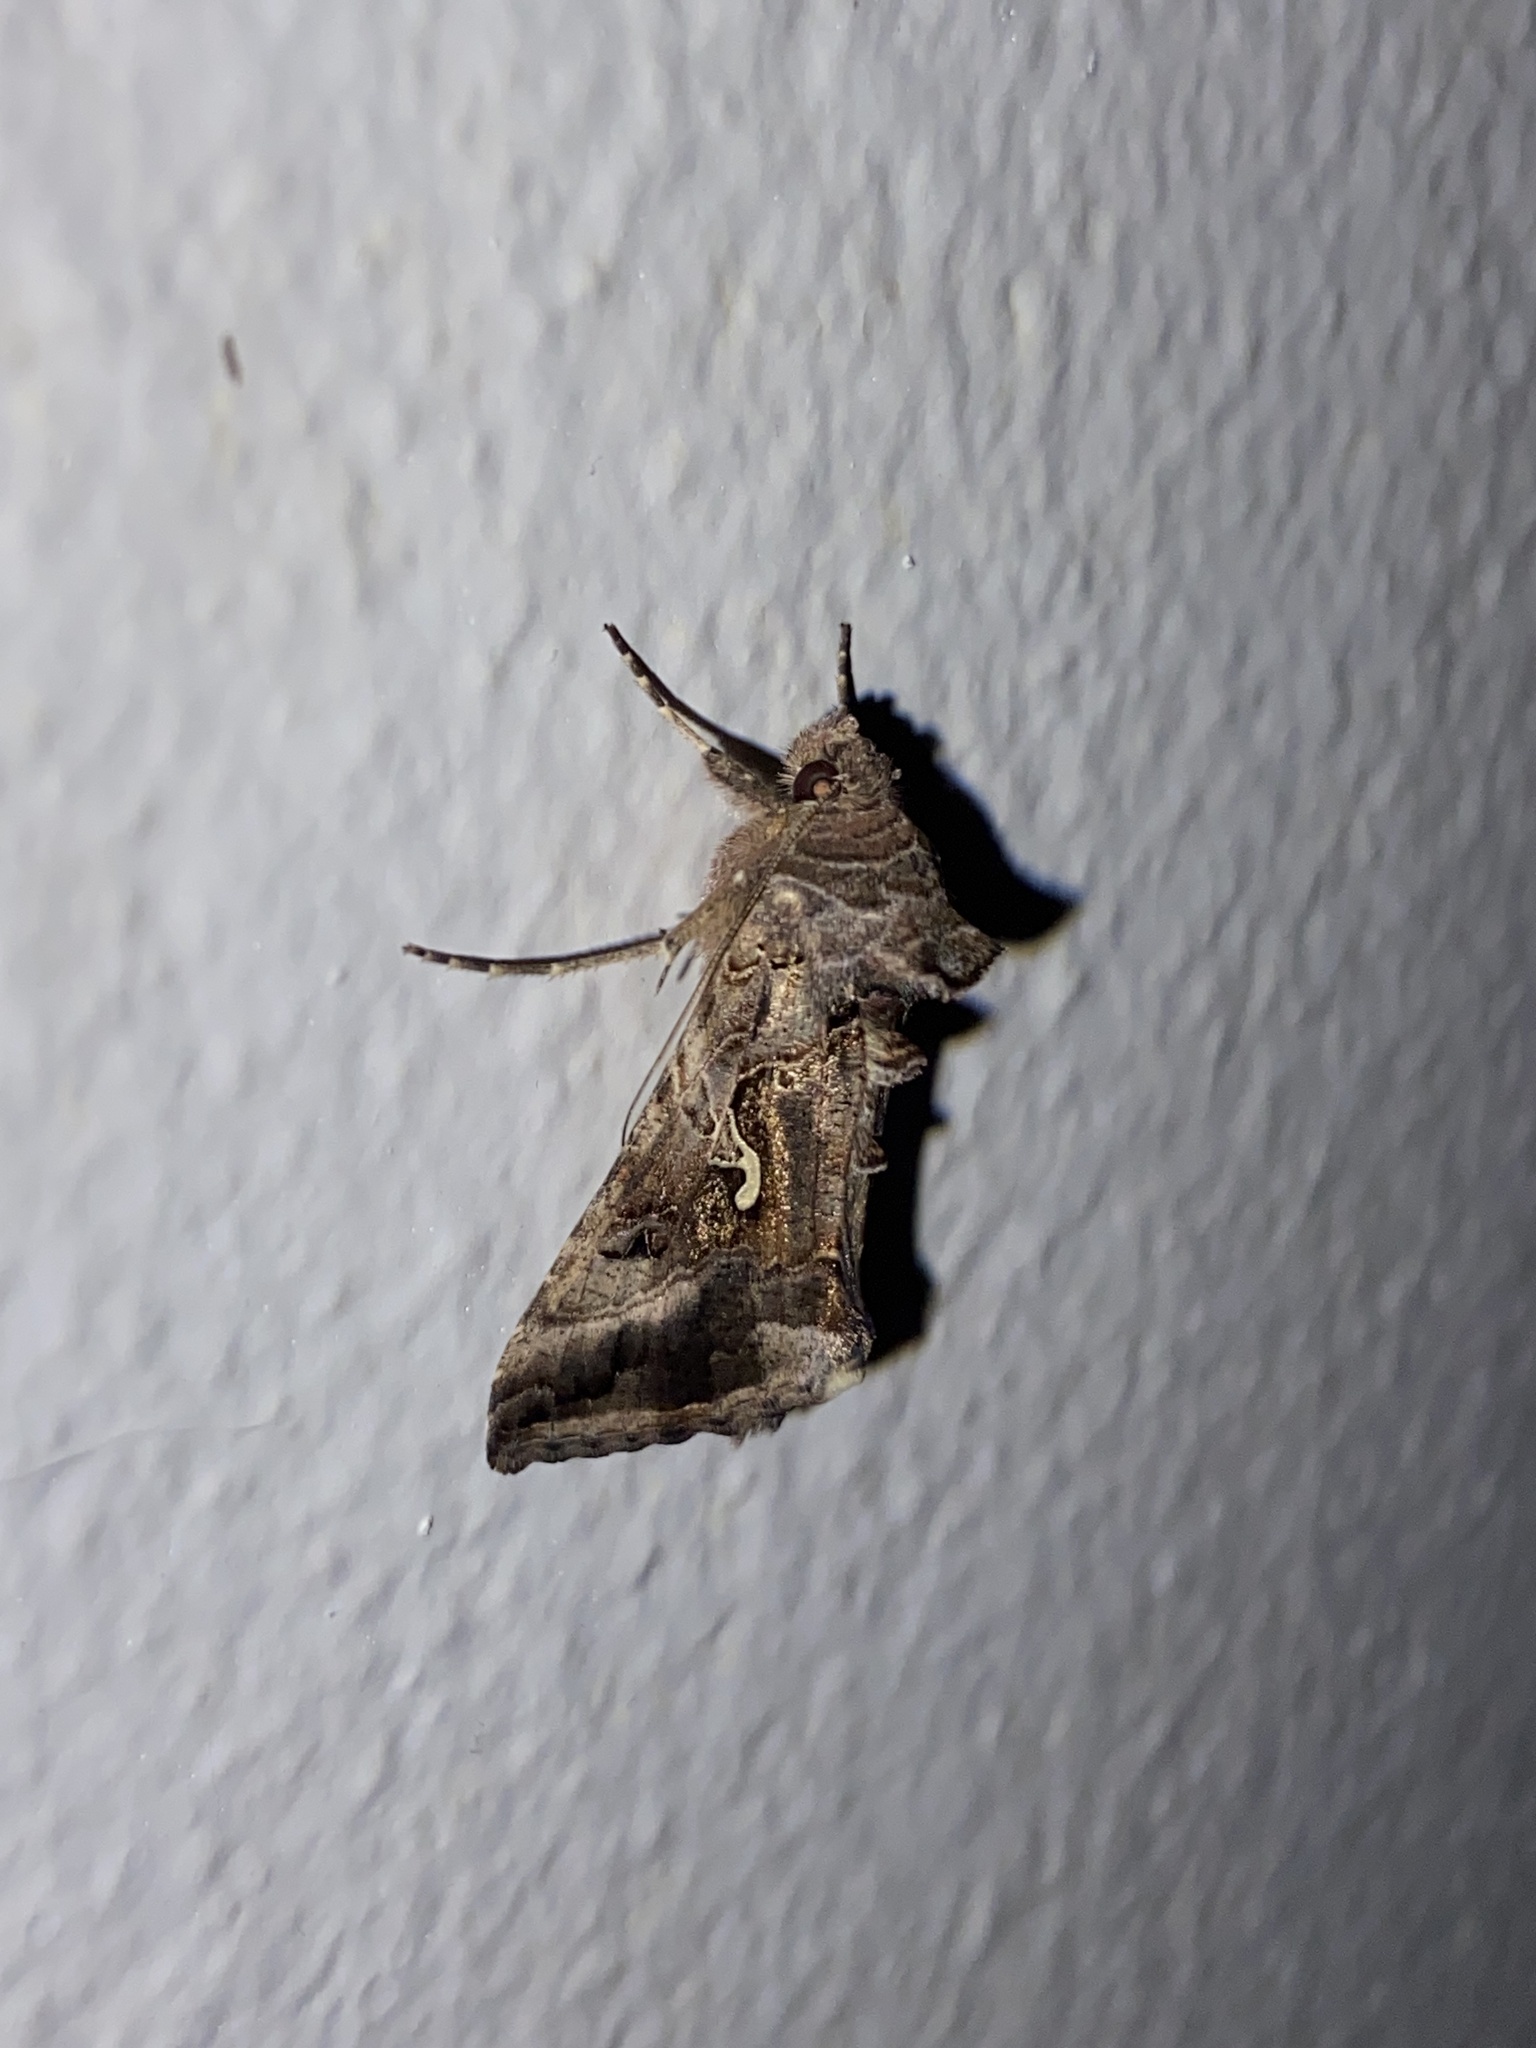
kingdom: Animalia
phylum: Arthropoda
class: Insecta
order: Lepidoptera
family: Noctuidae
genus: Autographa
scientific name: Autographa gamma
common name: Silver y
